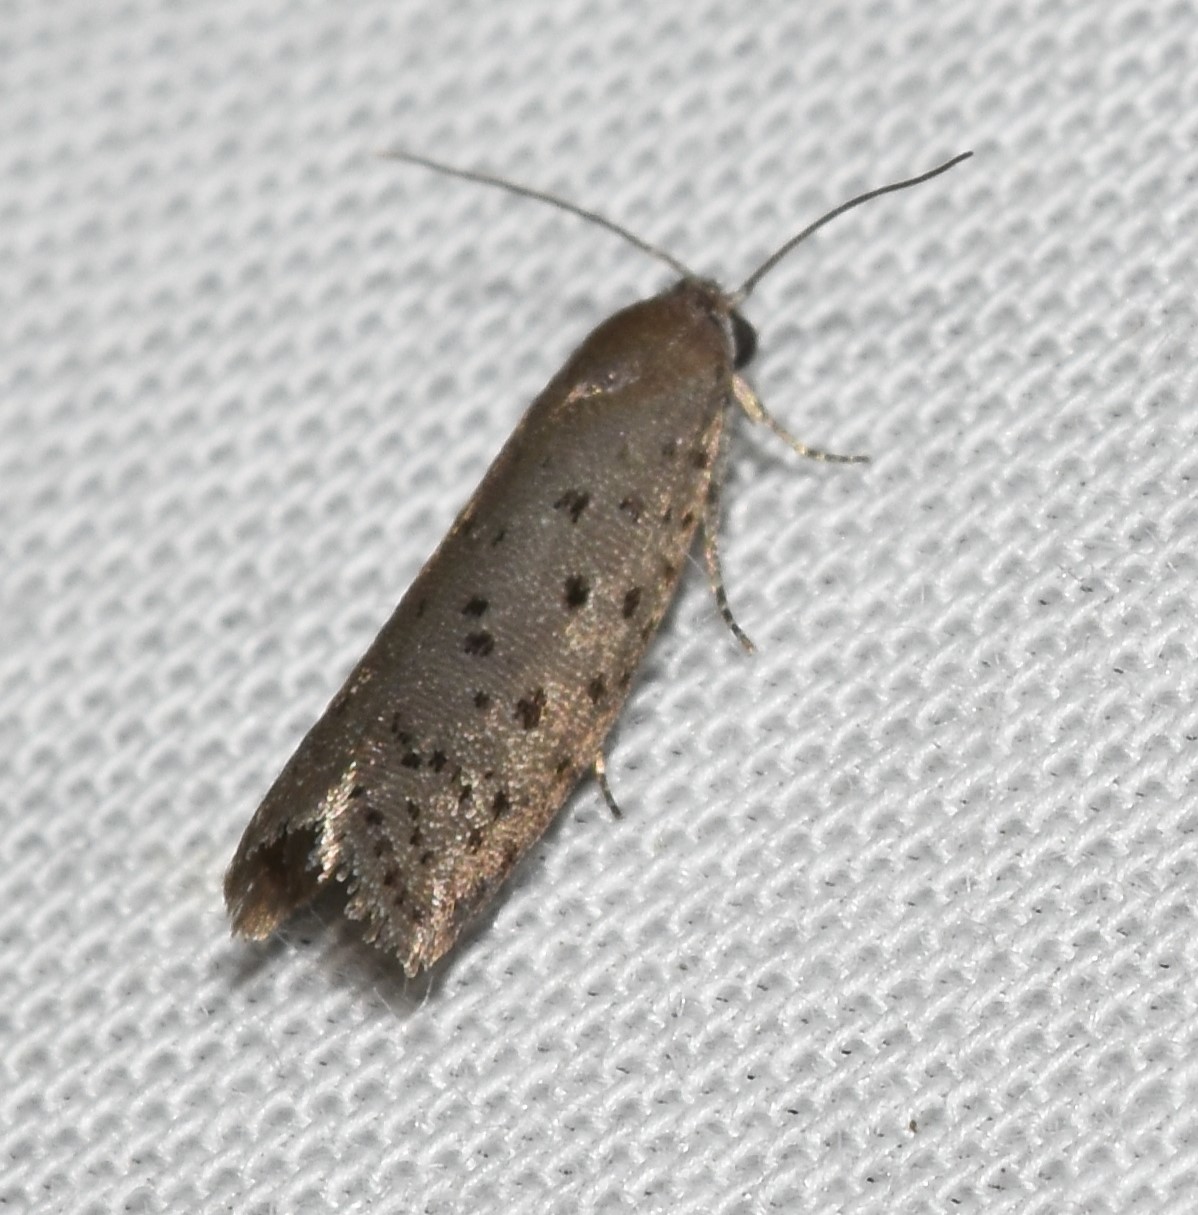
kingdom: Animalia
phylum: Arthropoda
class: Insecta
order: Lepidoptera
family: Galacticidae
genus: Homadaula
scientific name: Homadaula anisocentra
